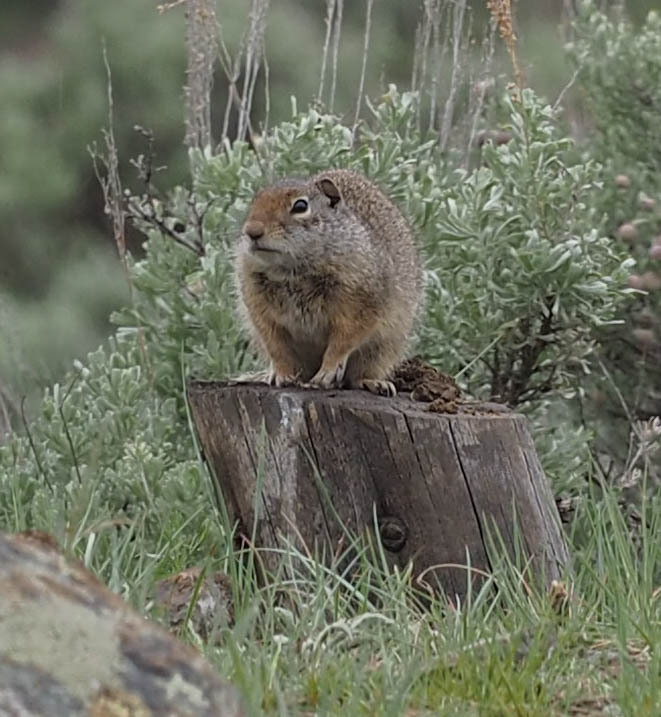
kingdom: Animalia
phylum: Chordata
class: Mammalia
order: Rodentia
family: Sciuridae
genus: Urocitellus
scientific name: Urocitellus armatus
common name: Uinta ground squirrel
